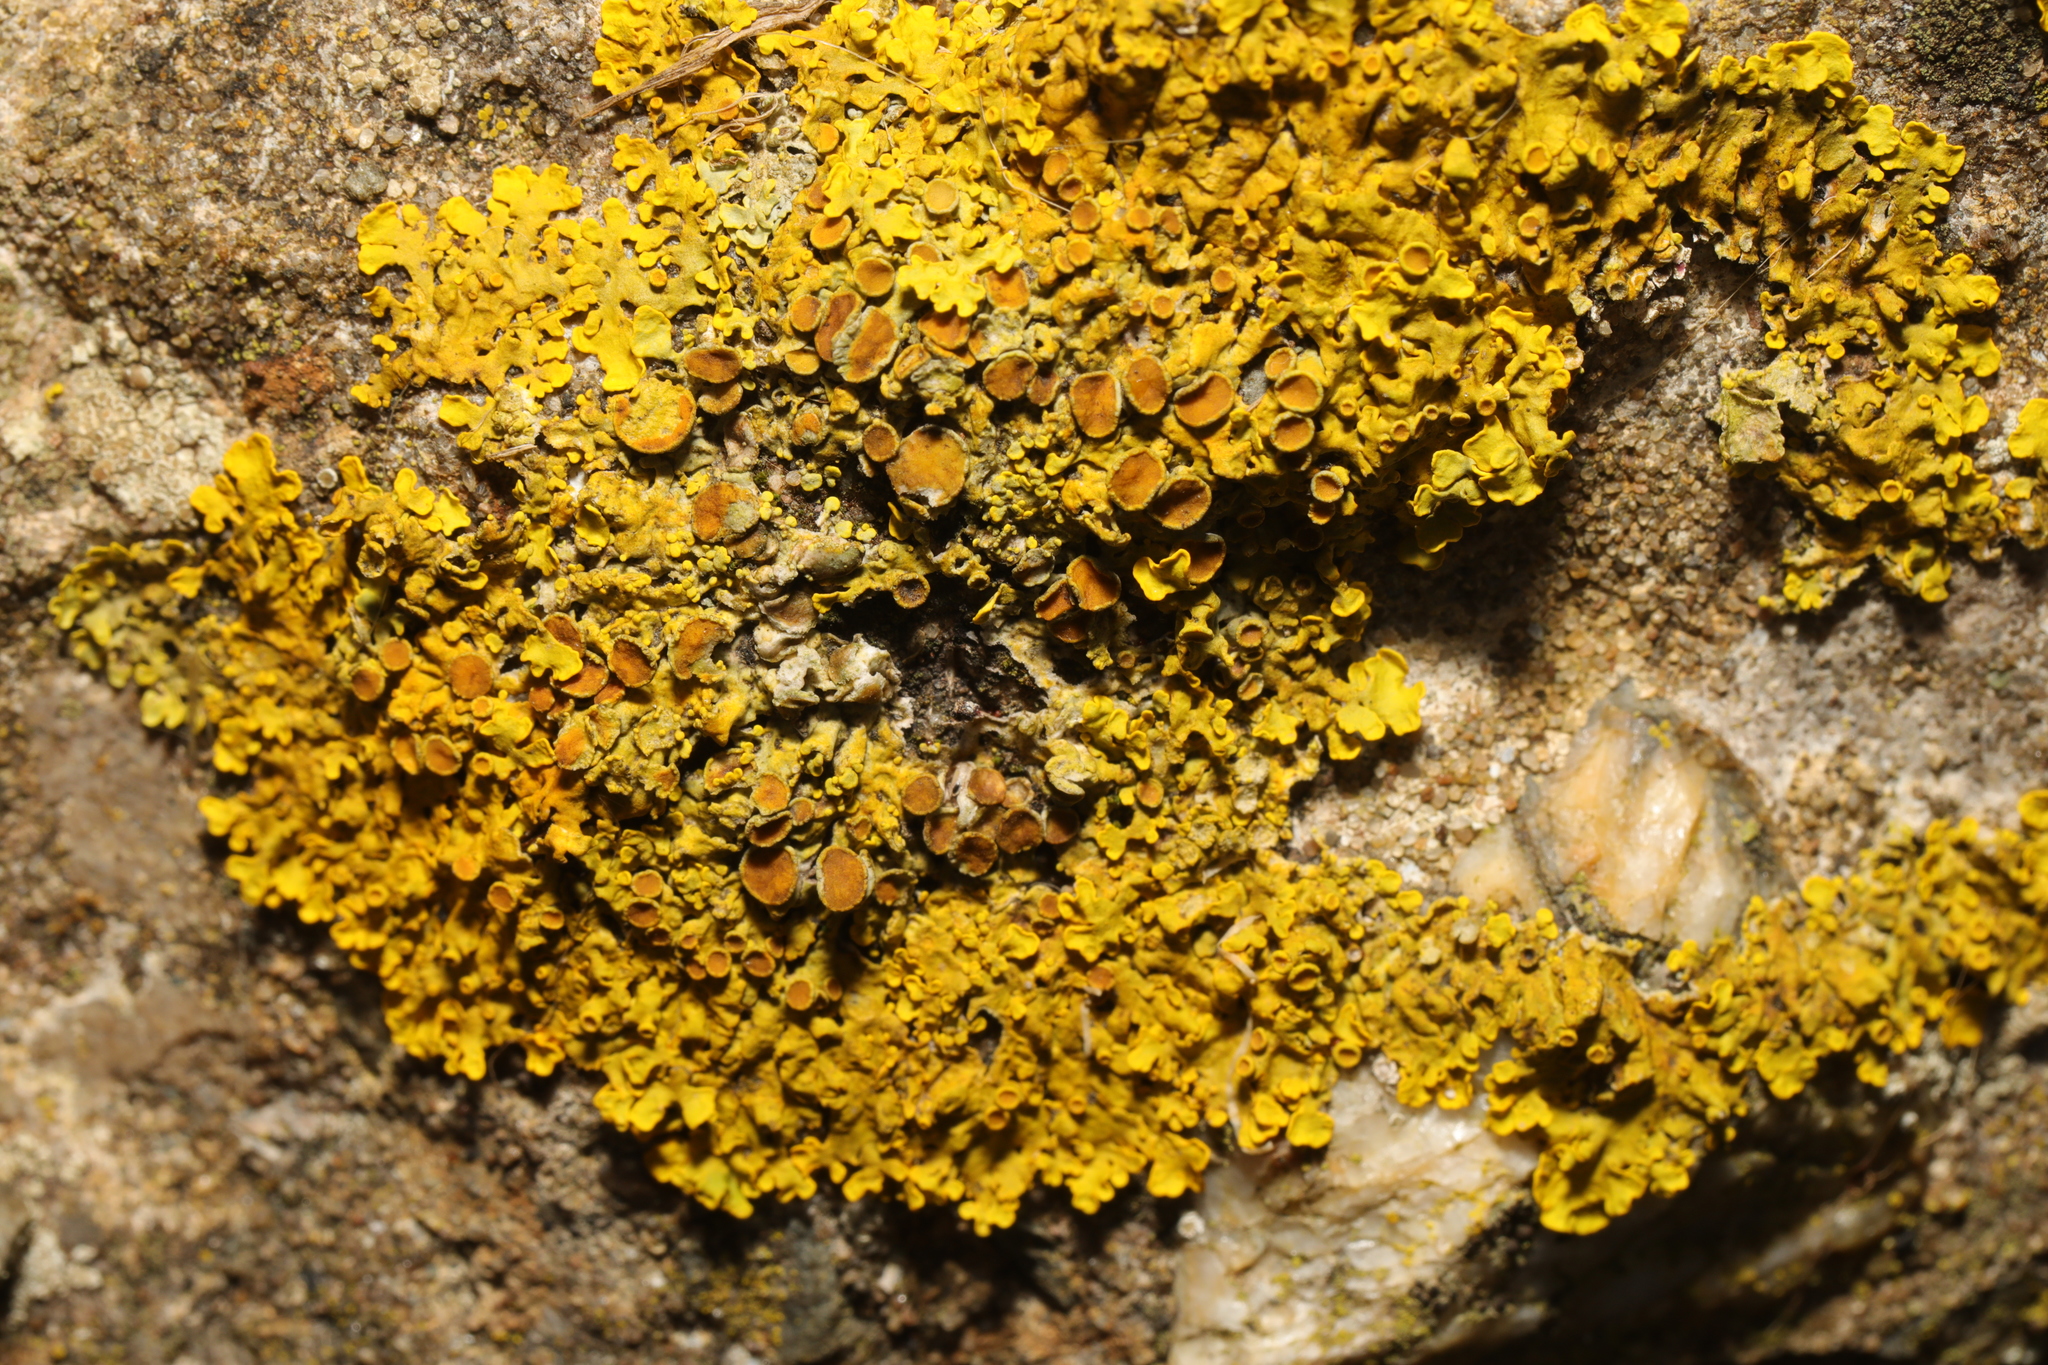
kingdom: Fungi
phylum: Ascomycota
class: Lecanoromycetes
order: Teloschistales
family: Teloschistaceae
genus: Xanthoria
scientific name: Xanthoria parietina
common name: Common orange lichen
